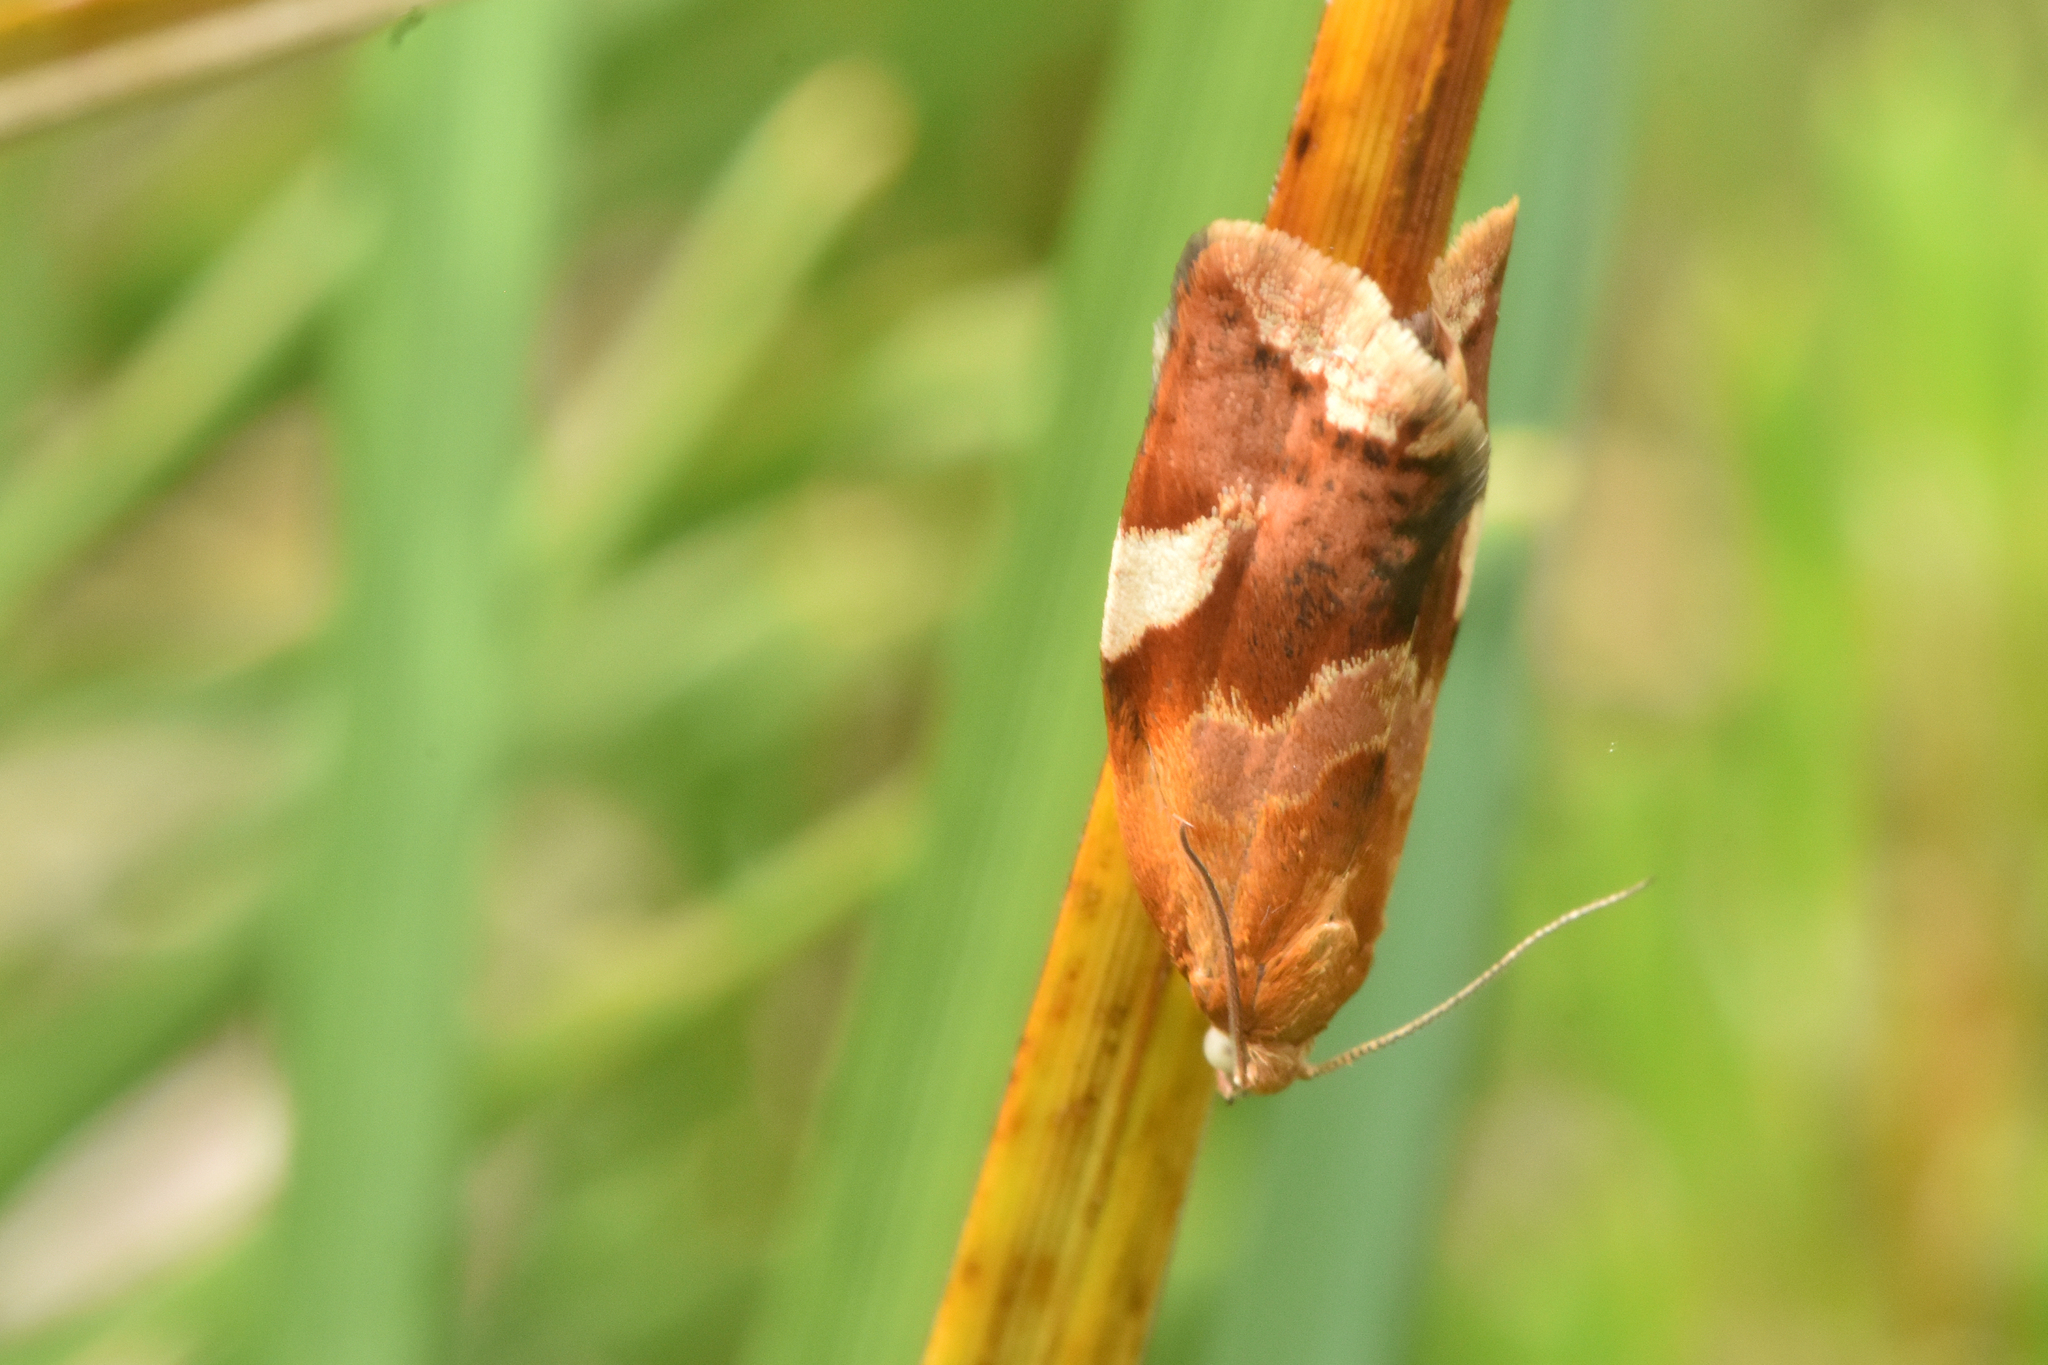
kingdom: Animalia
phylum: Arthropoda
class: Insecta
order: Lepidoptera
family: Tortricidae
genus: Clepsis
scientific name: Clepsis persicana
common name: White triangle tortrix
